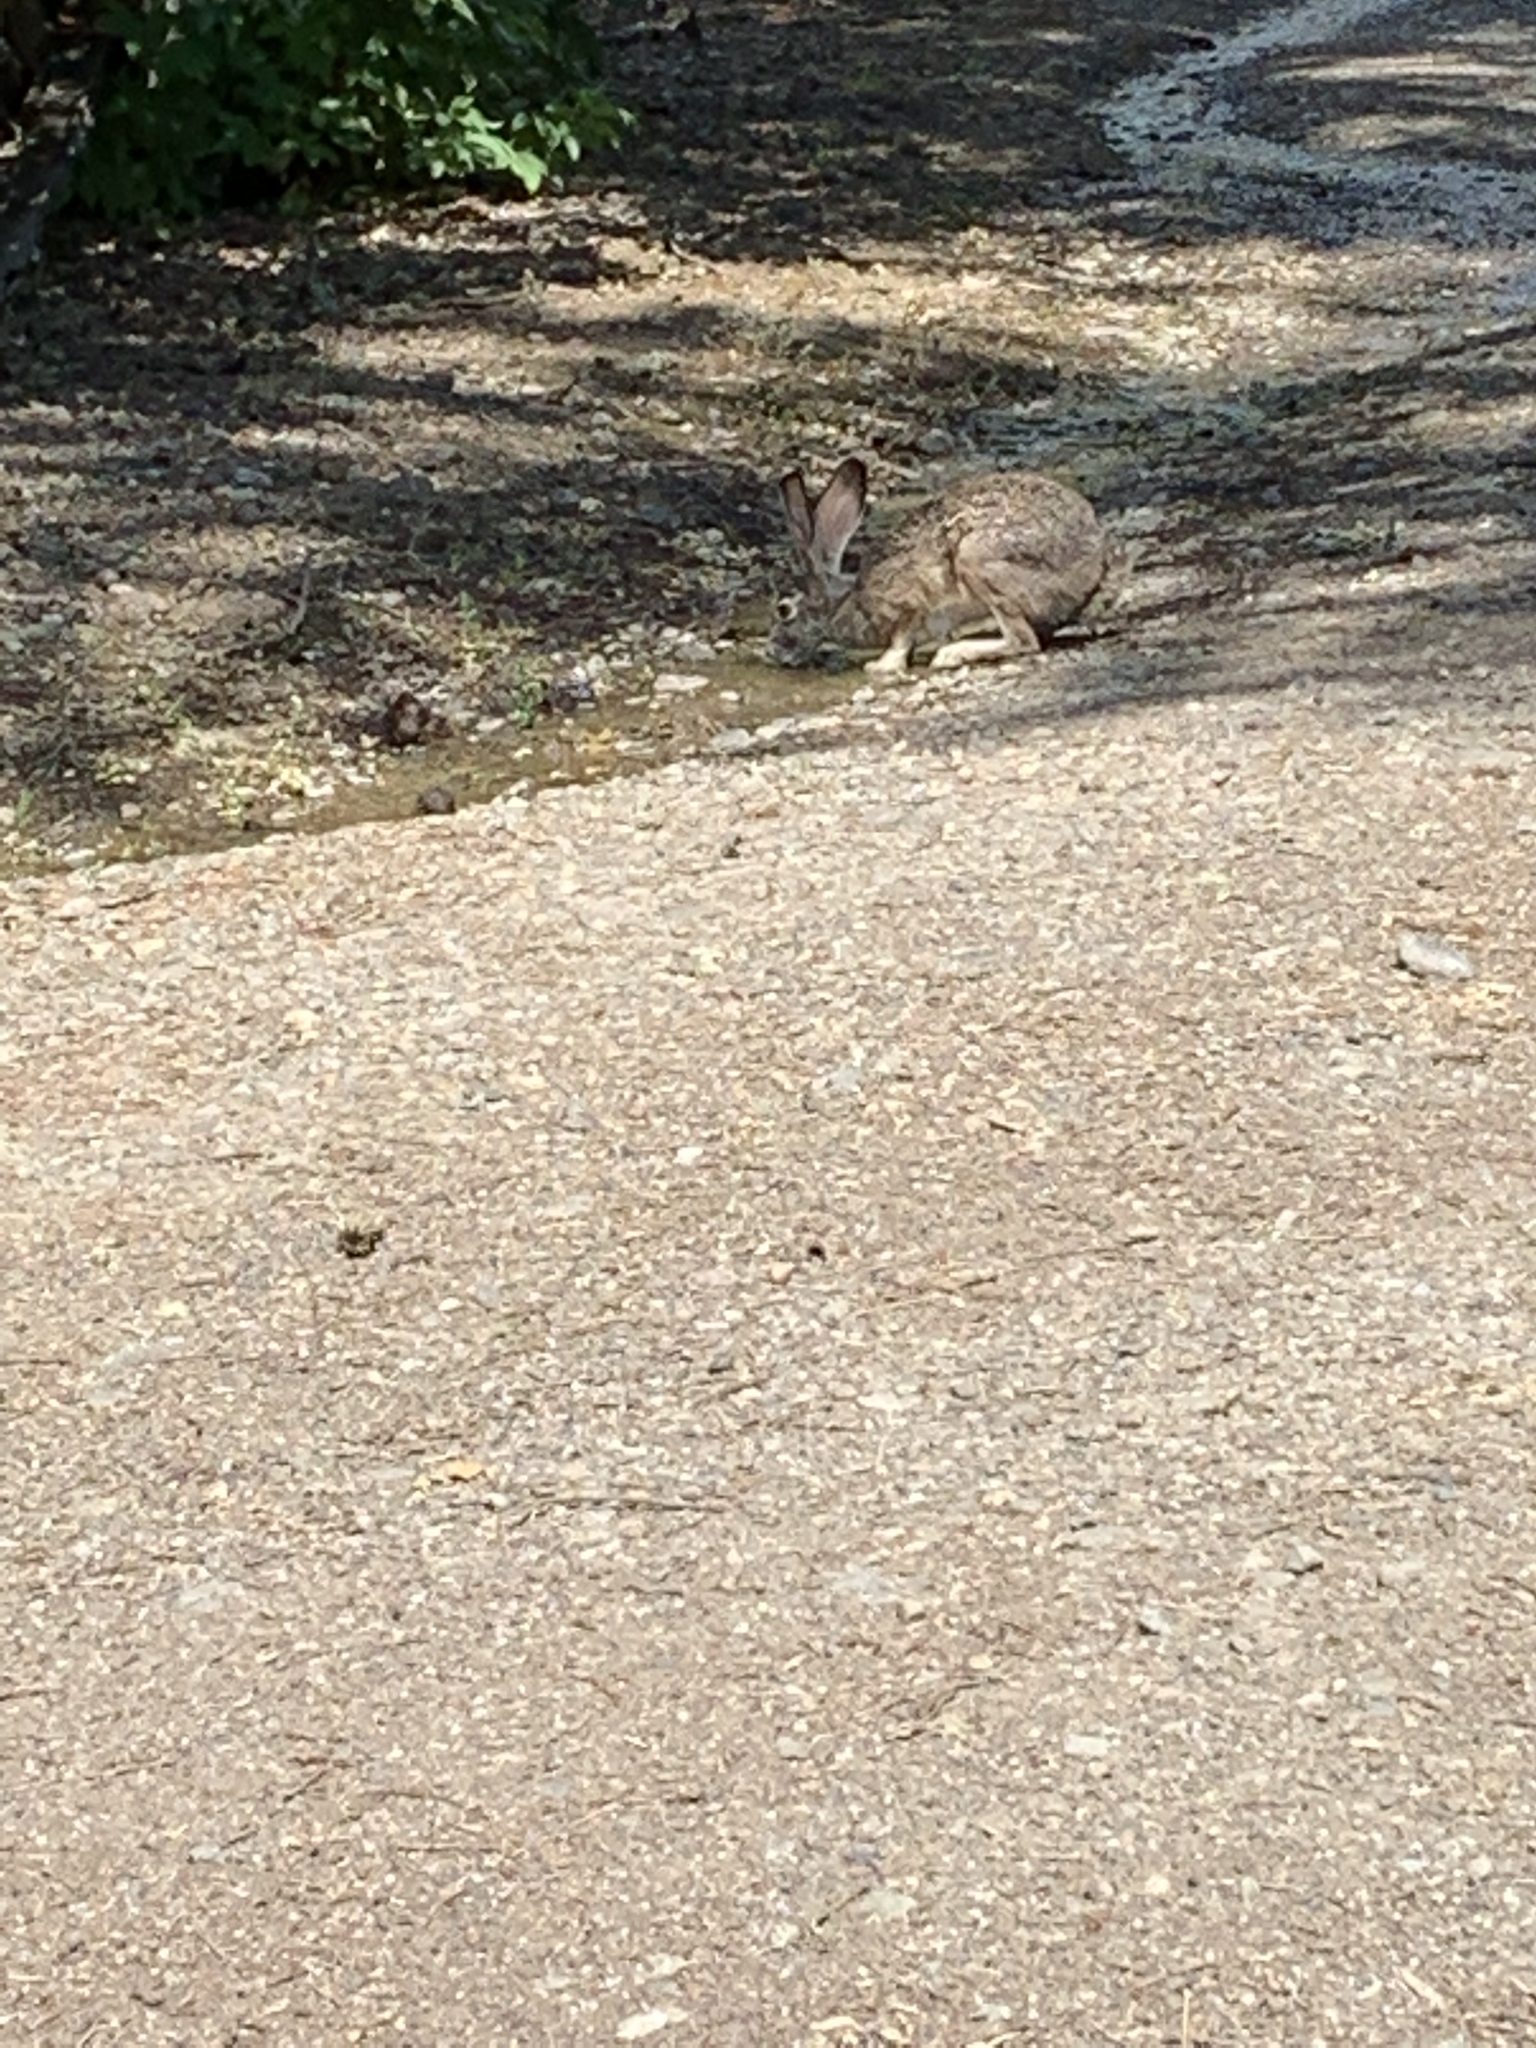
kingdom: Animalia
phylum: Chordata
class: Mammalia
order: Lagomorpha
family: Leporidae
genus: Lepus
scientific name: Lepus californicus
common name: Black-tailed jackrabbit
